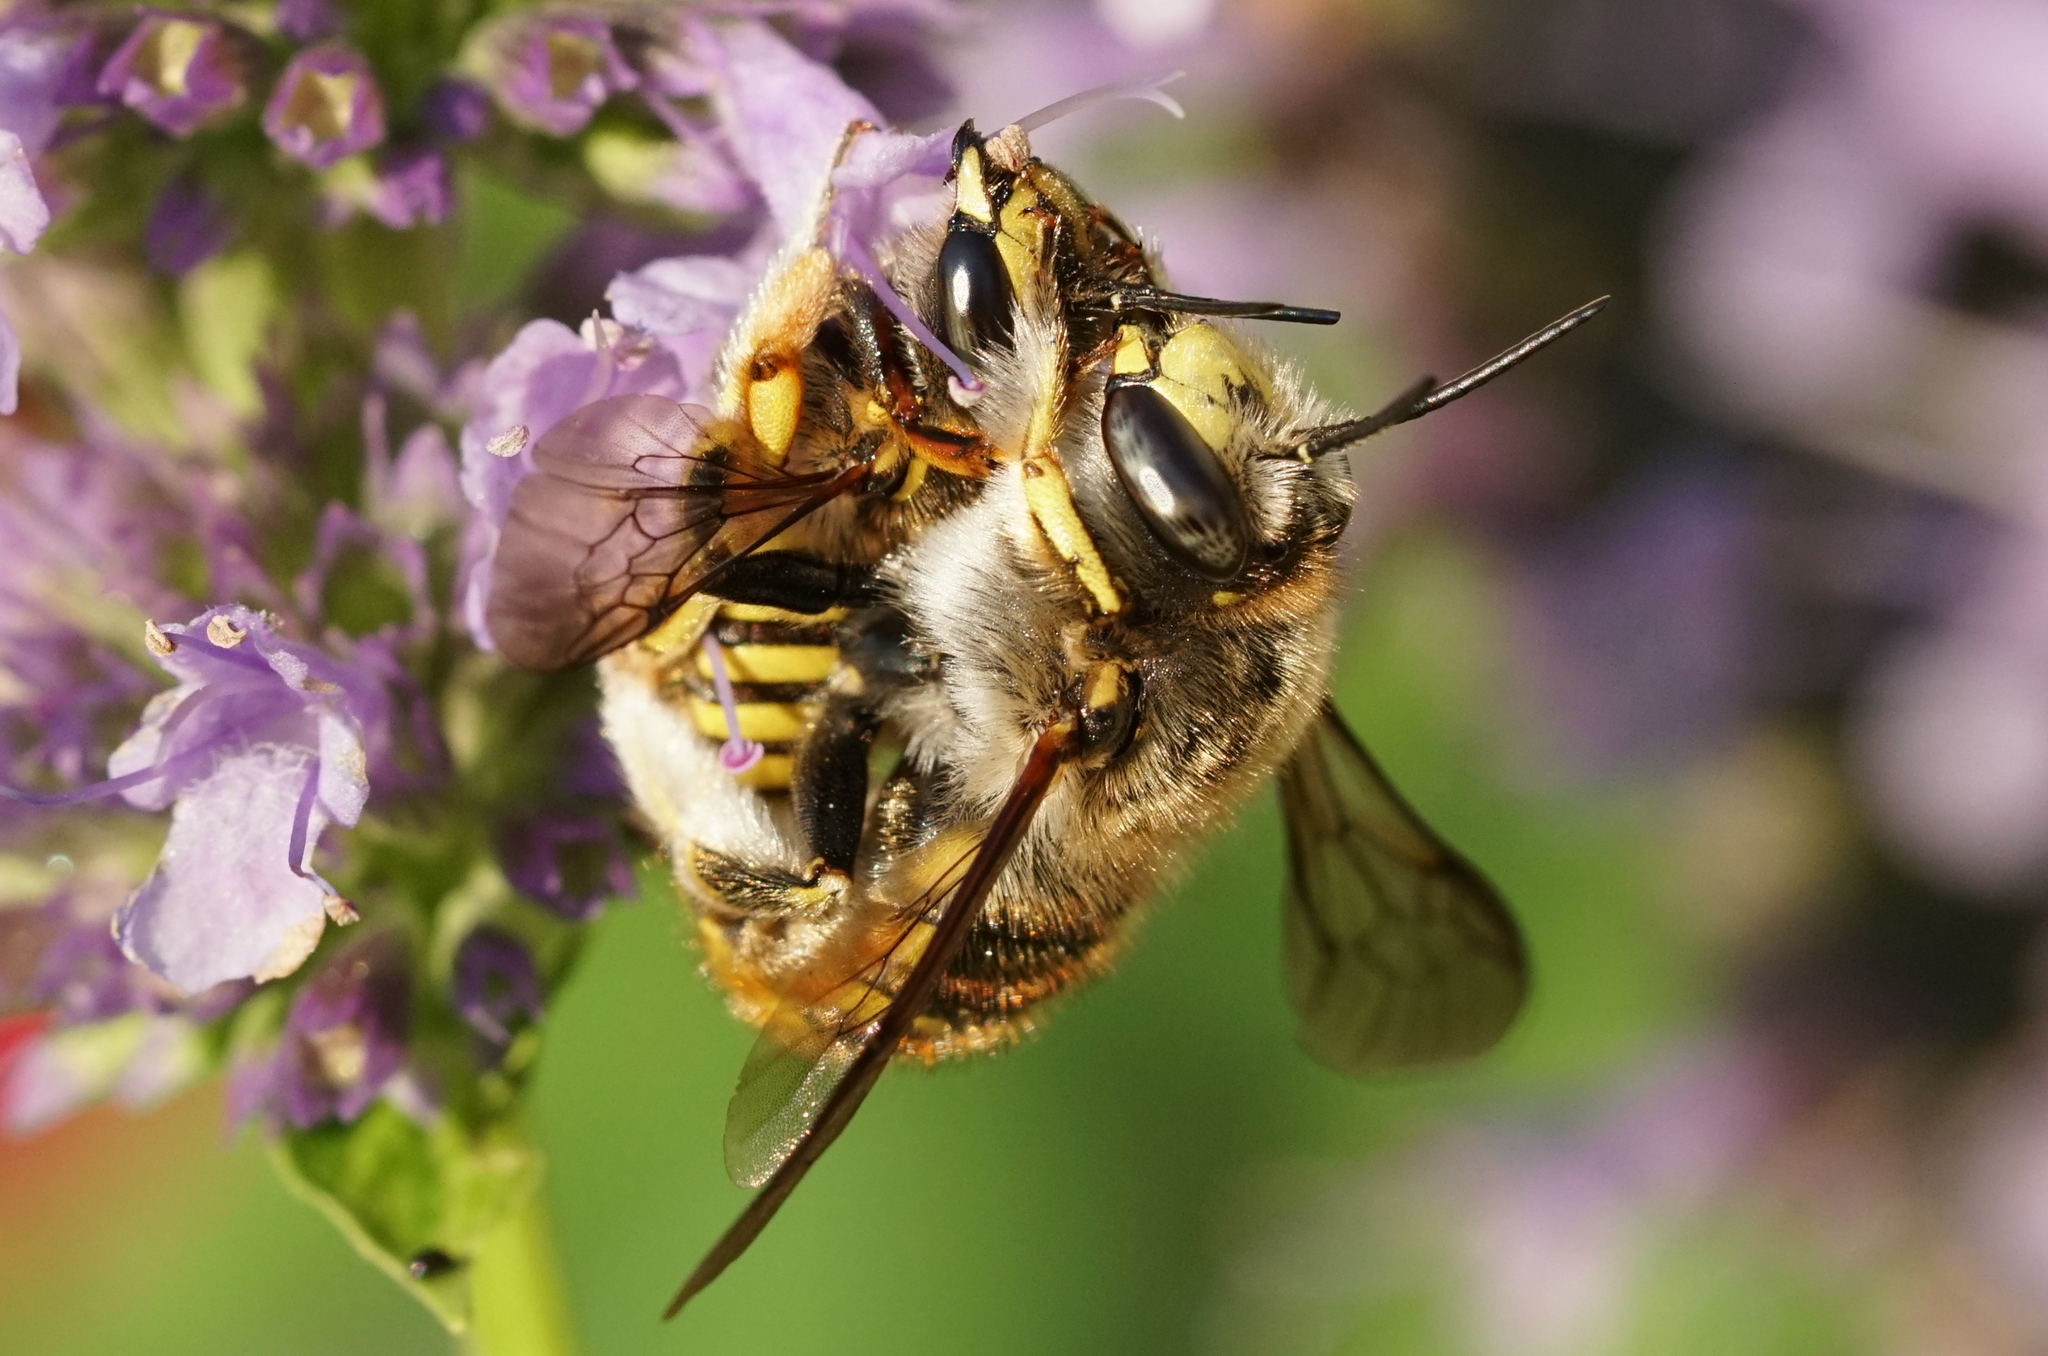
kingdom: Animalia
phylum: Arthropoda
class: Insecta
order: Hymenoptera
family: Megachilidae
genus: Anthidium
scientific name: Anthidium manicatum
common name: Wool carder bee
